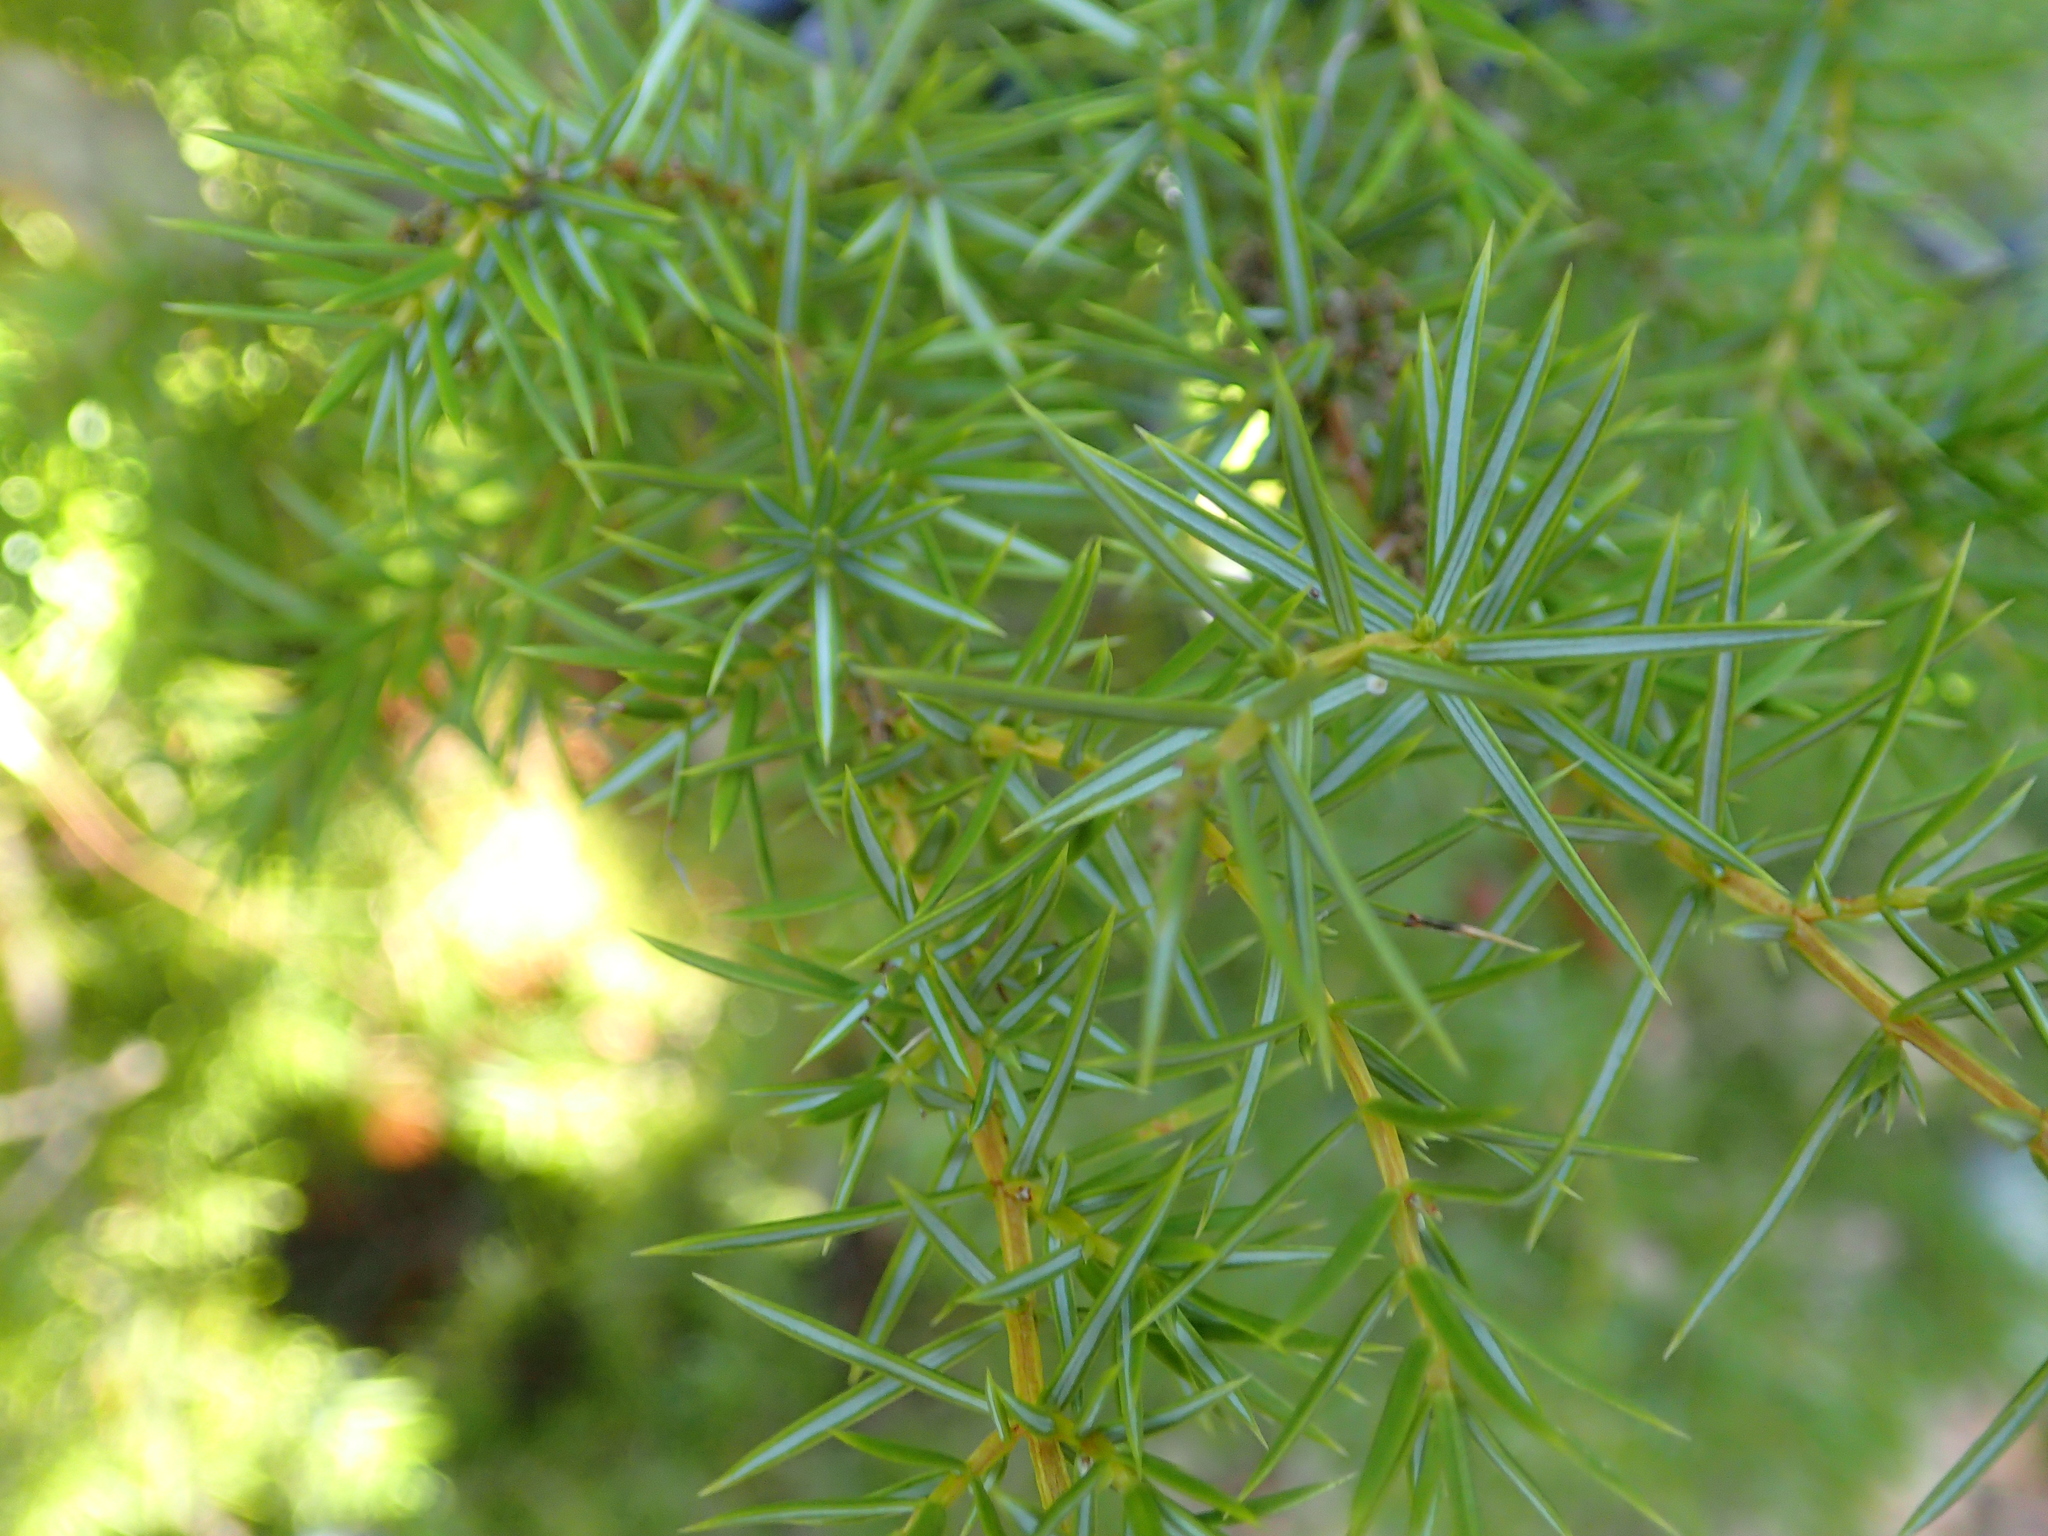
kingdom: Plantae
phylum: Tracheophyta
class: Pinopsida
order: Pinales
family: Cupressaceae
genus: Juniperus
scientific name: Juniperus communis
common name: Common juniper
